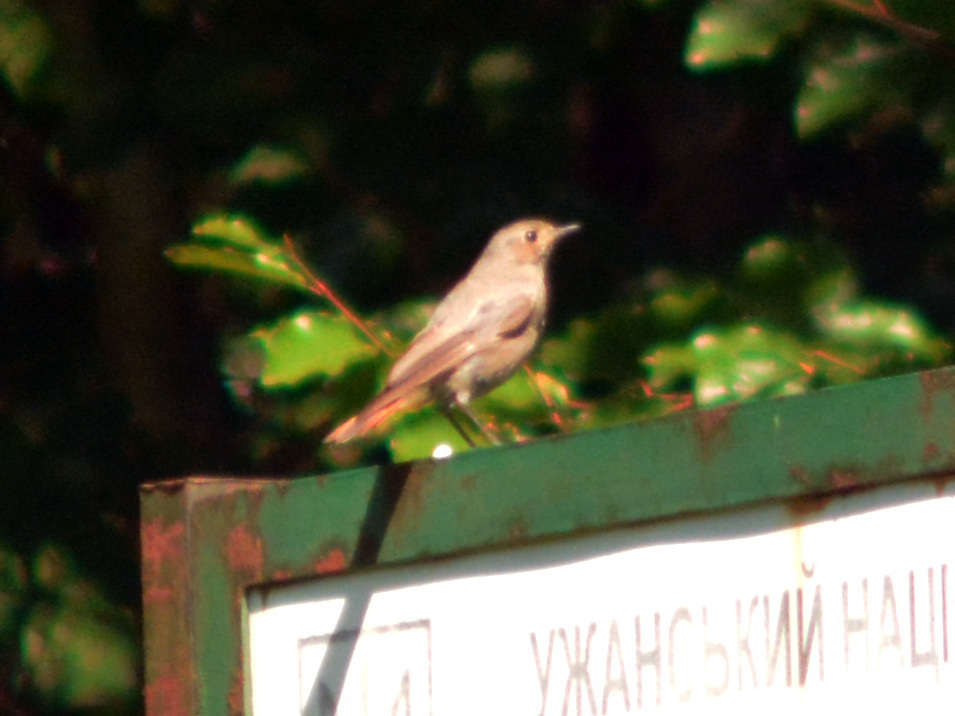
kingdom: Animalia
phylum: Chordata
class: Aves
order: Passeriformes
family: Muscicapidae
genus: Phoenicurus
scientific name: Phoenicurus ochruros
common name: Black redstart
